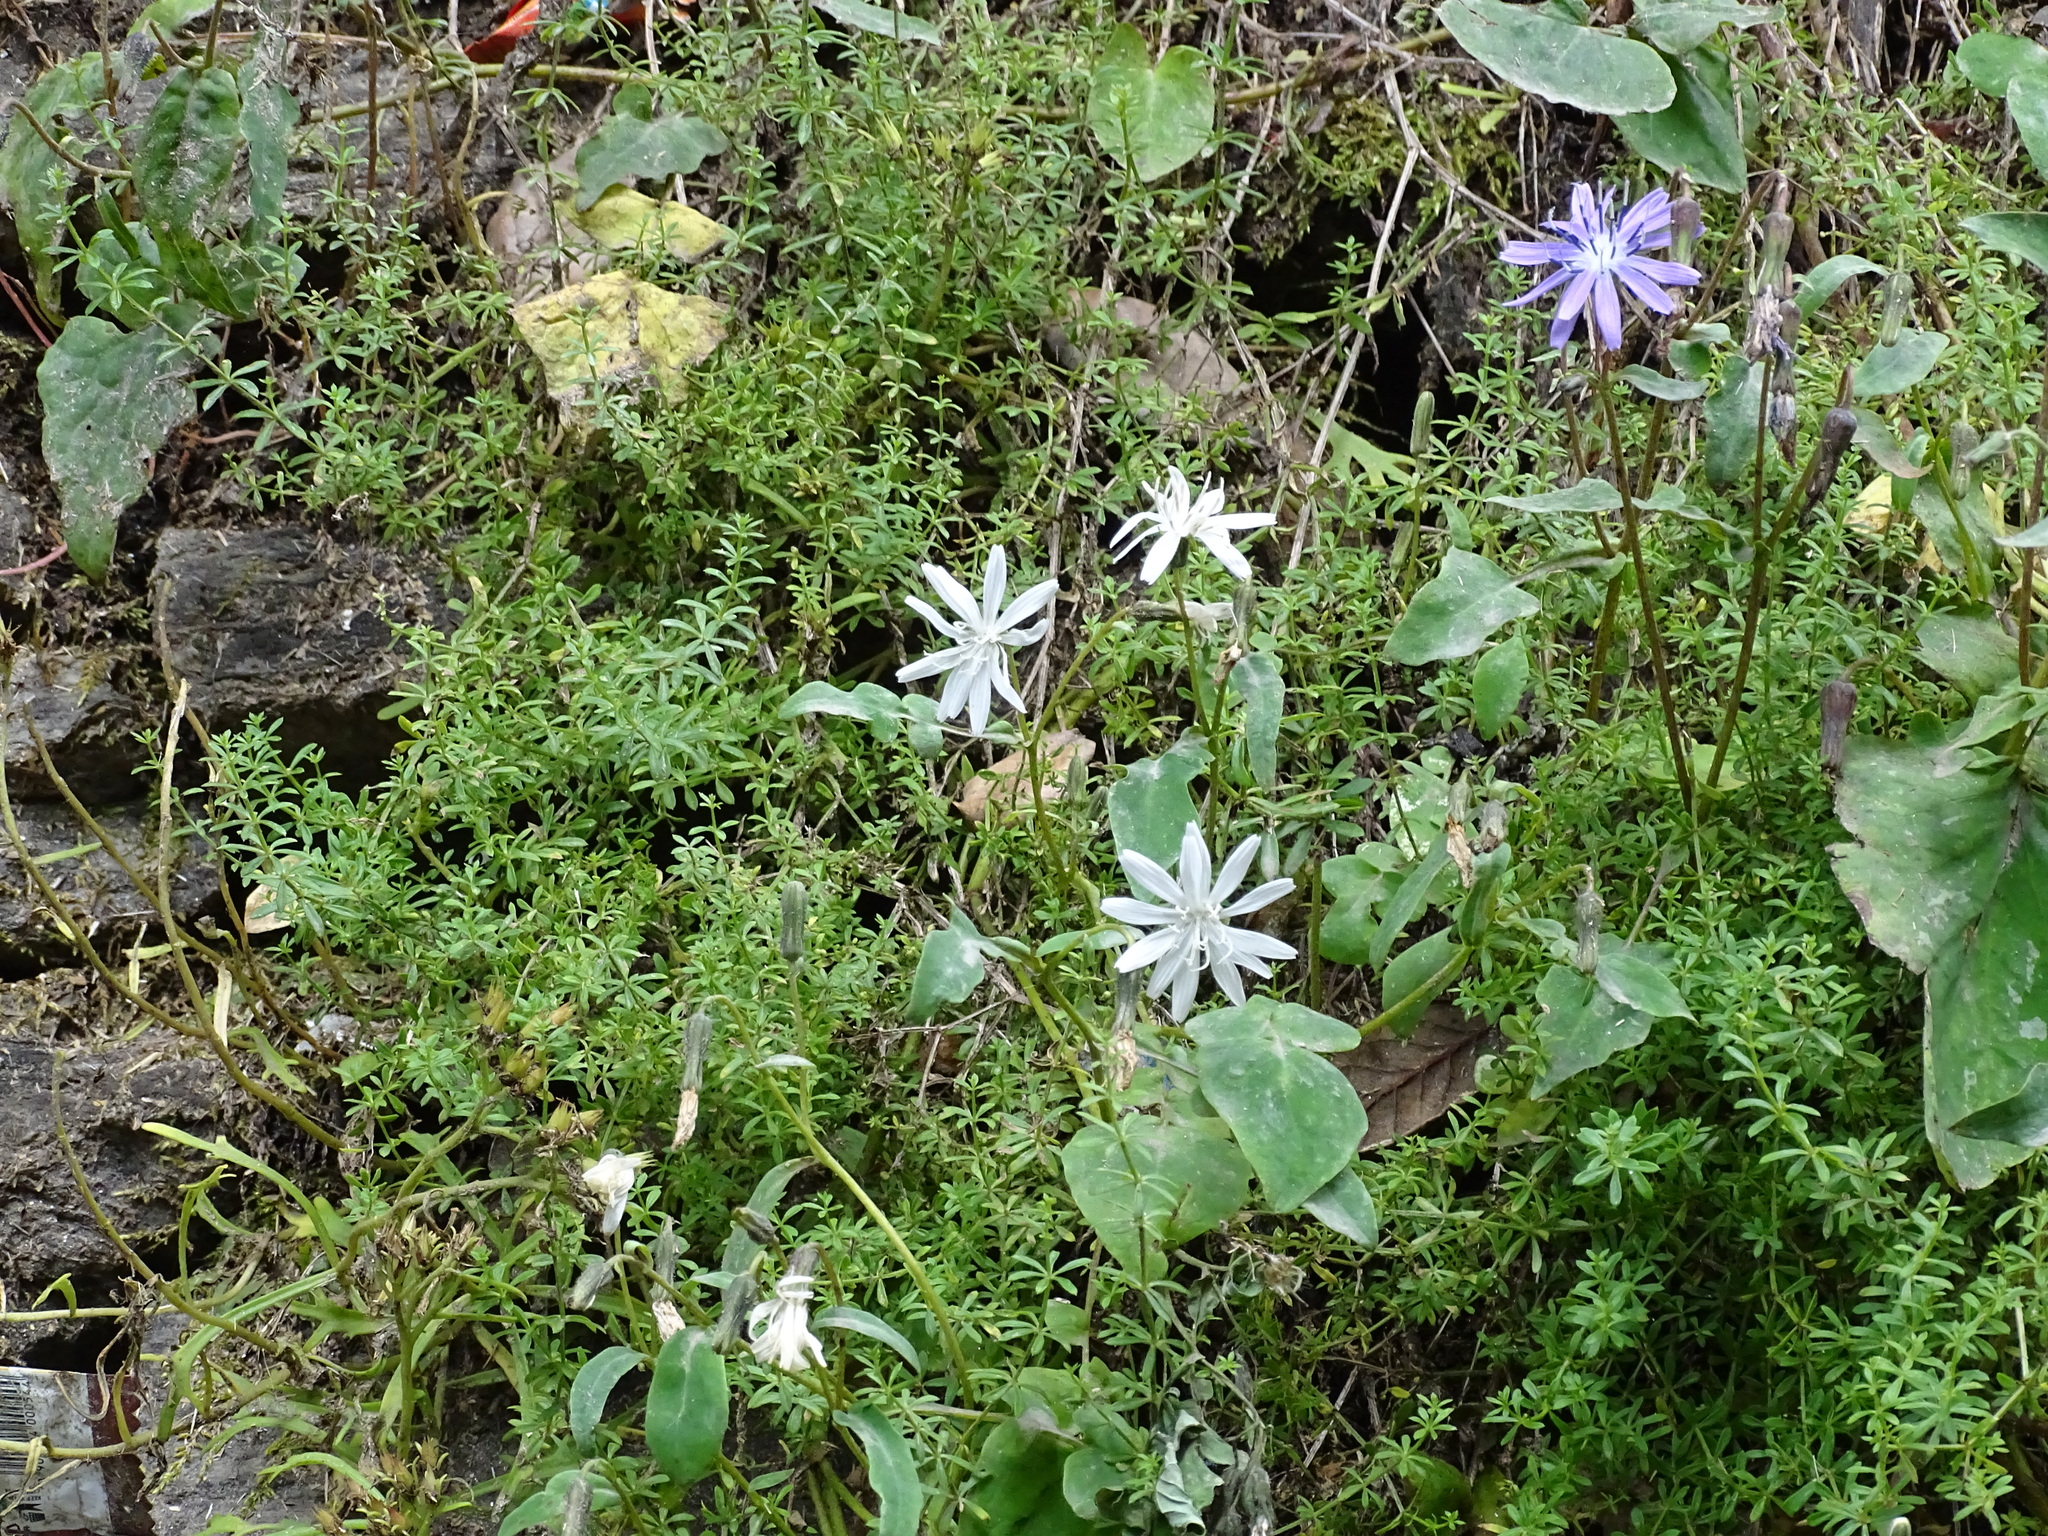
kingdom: Plantae
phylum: Tracheophyta
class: Magnoliopsida
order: Asterales
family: Asteraceae
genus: Melanoseris
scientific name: Melanoseris macrorhiza
